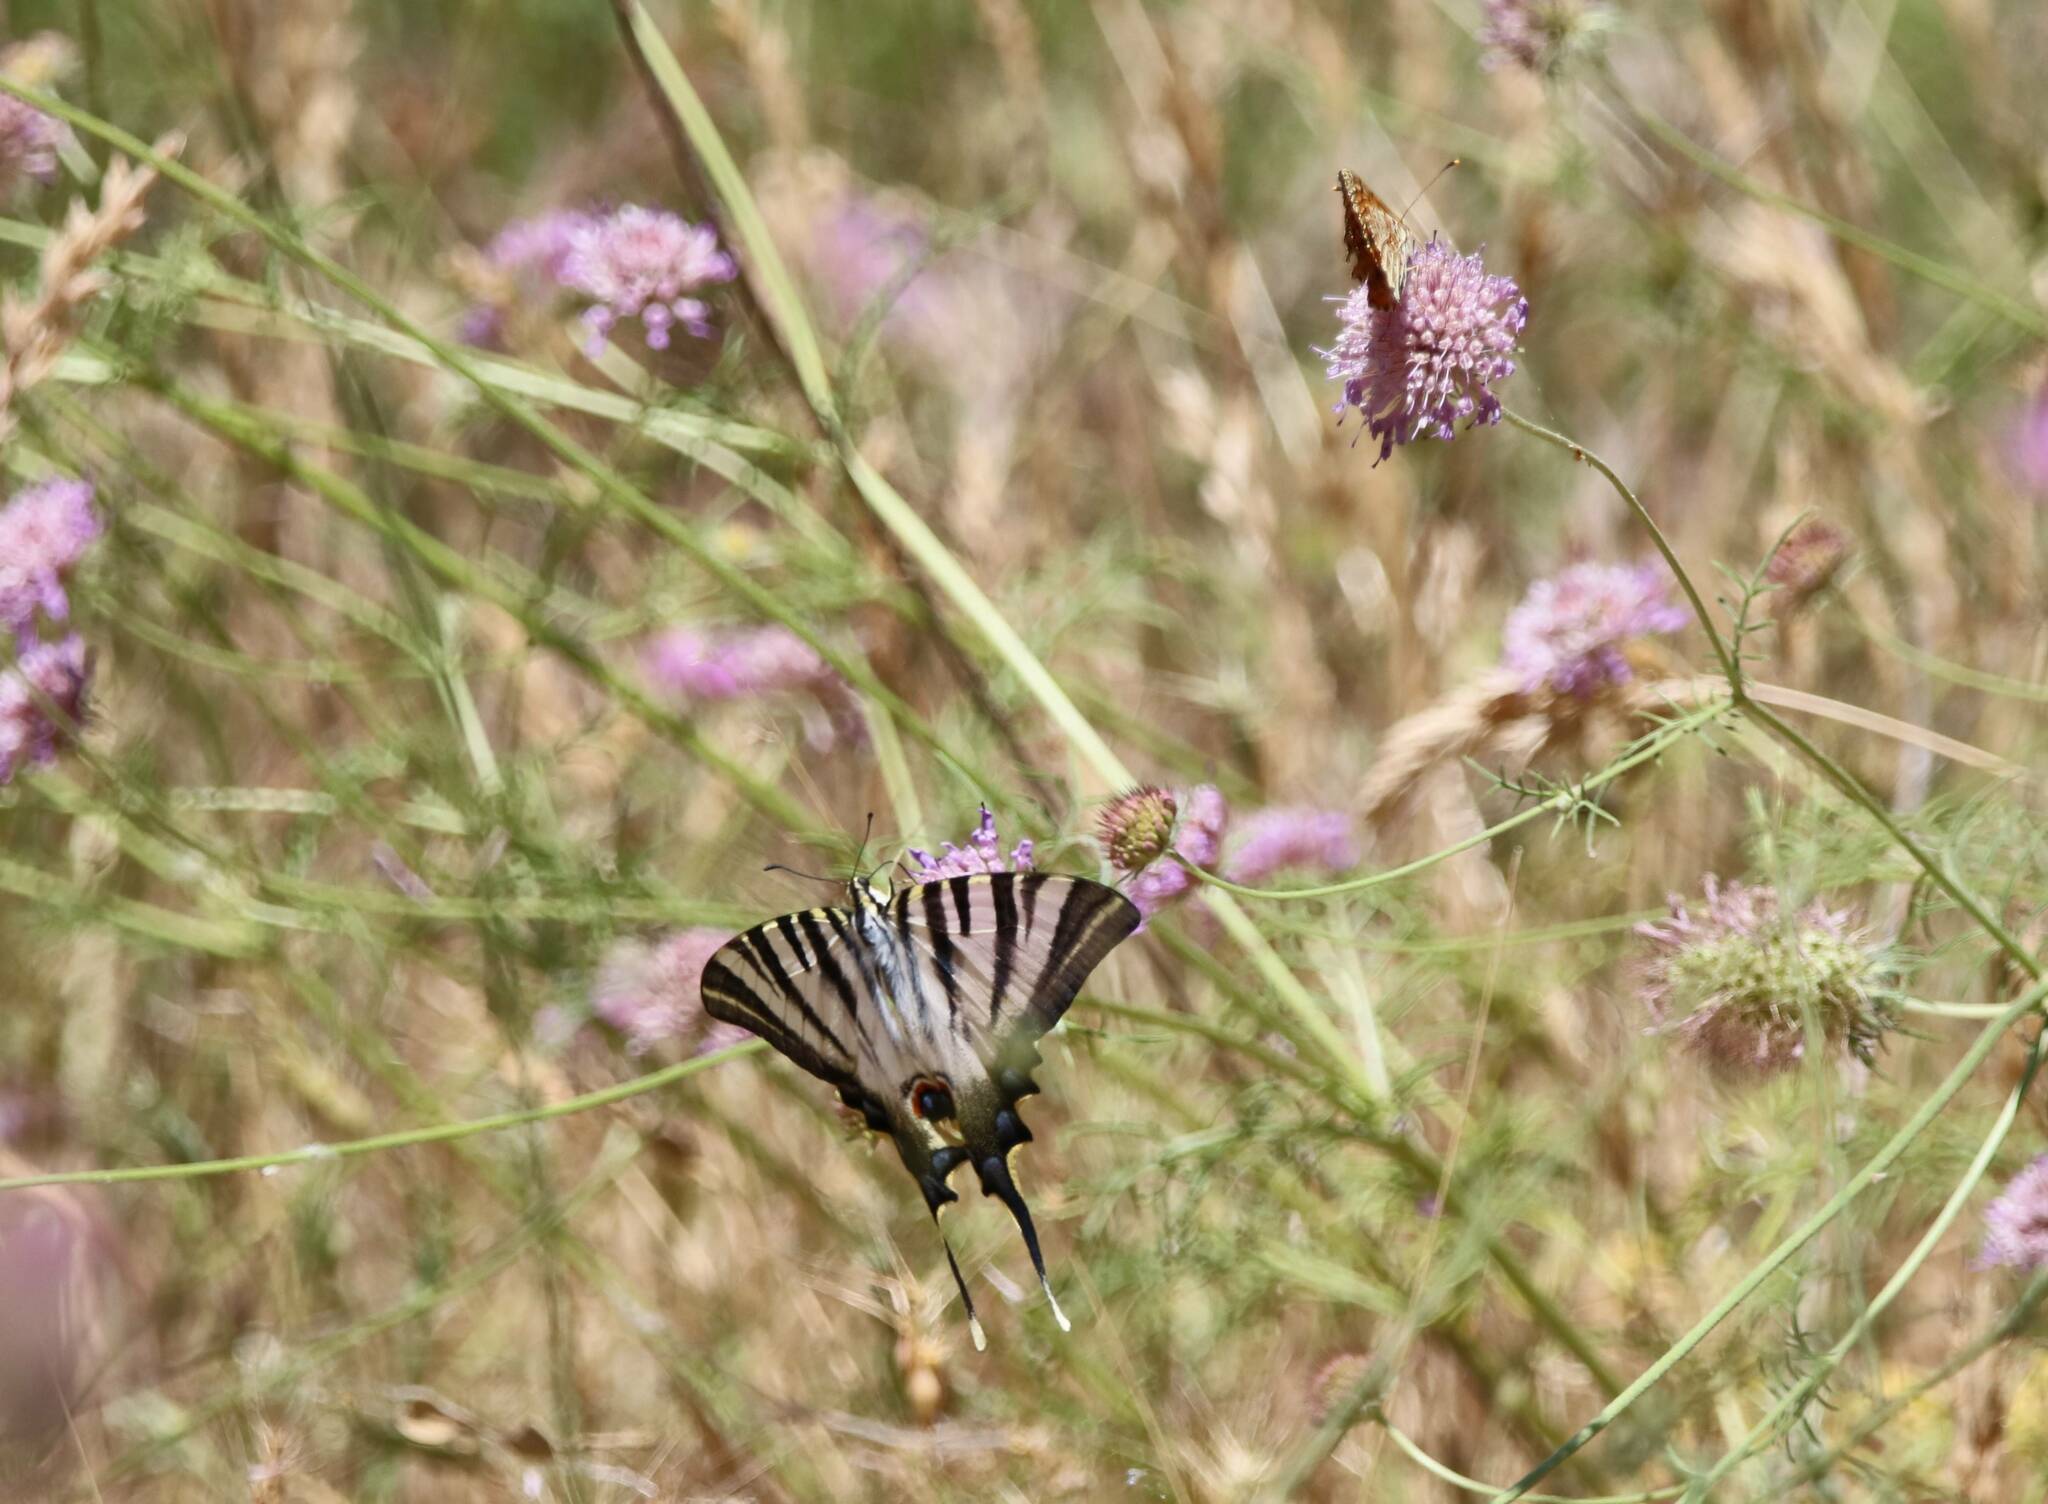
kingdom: Animalia
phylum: Arthropoda
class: Insecta
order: Lepidoptera
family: Papilionidae
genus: Iphiclides
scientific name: Iphiclides feisthamelii
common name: Iberian scarce swallowtail
